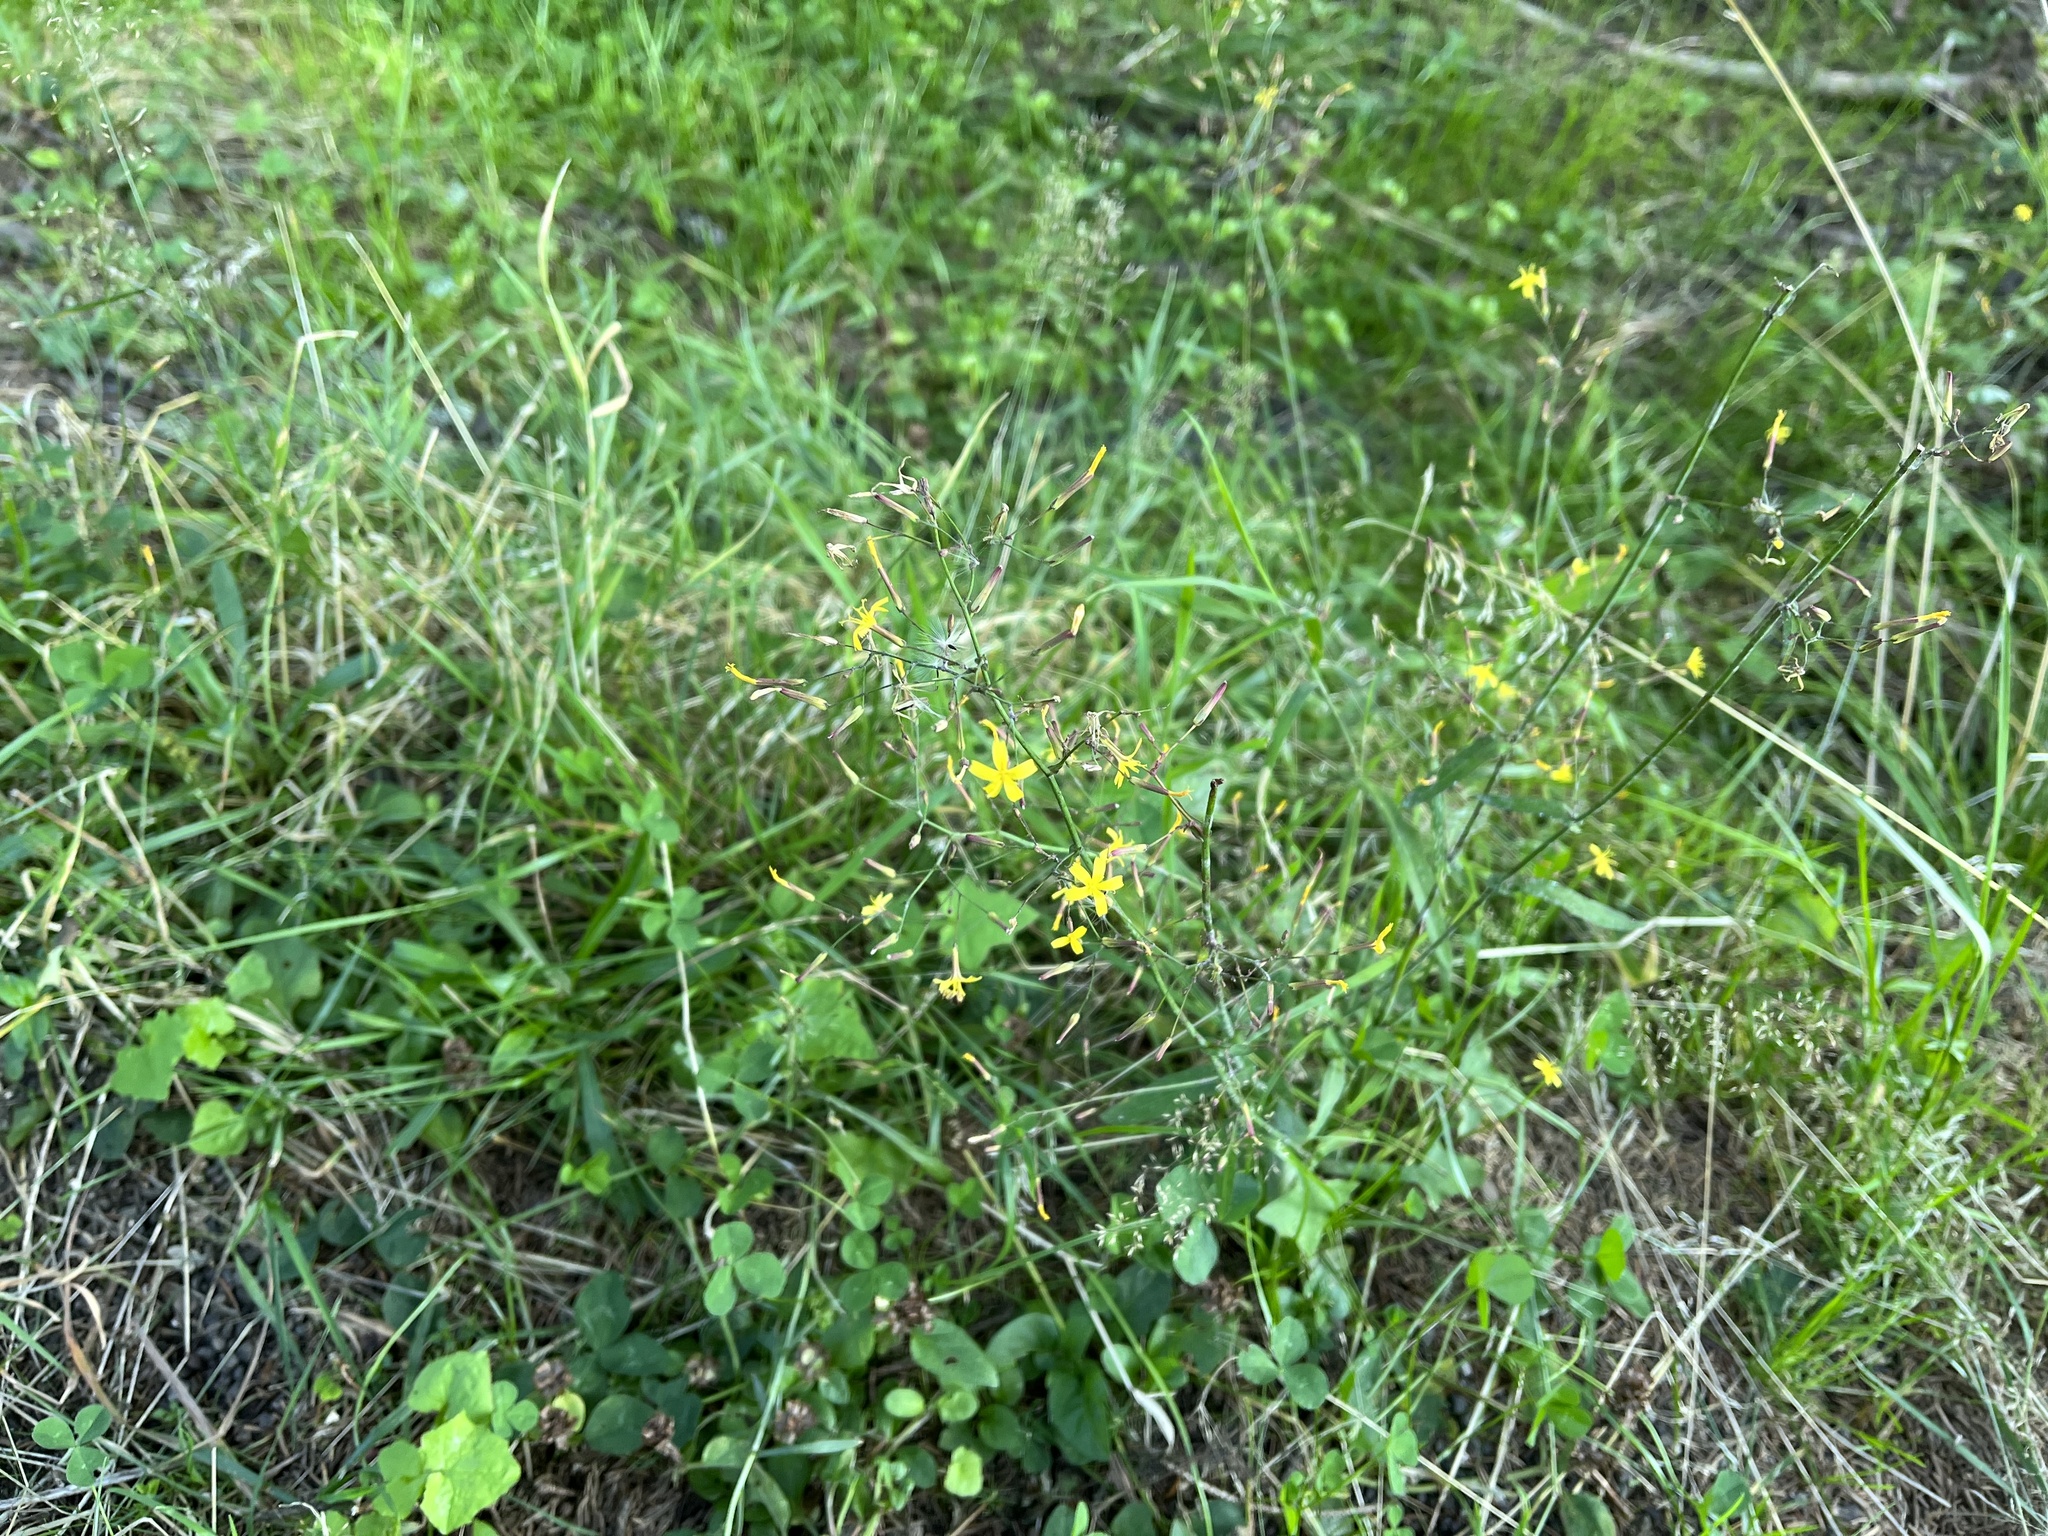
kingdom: Plantae
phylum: Tracheophyta
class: Magnoliopsida
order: Asterales
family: Asteraceae
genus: Mycelis
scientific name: Mycelis muralis
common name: Wall lettuce
